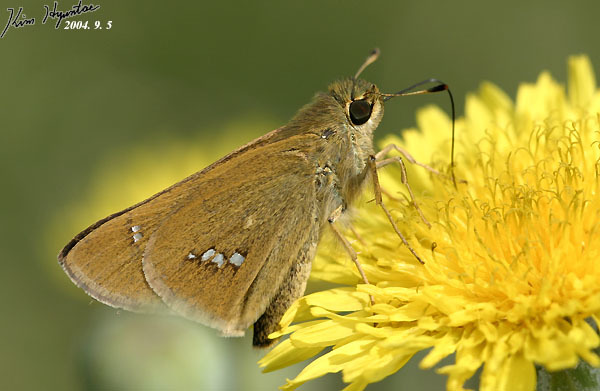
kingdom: Animalia
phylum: Arthropoda
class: Insecta
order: Lepidoptera
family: Hesperiidae
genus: Parnara
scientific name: Parnara guttatus
